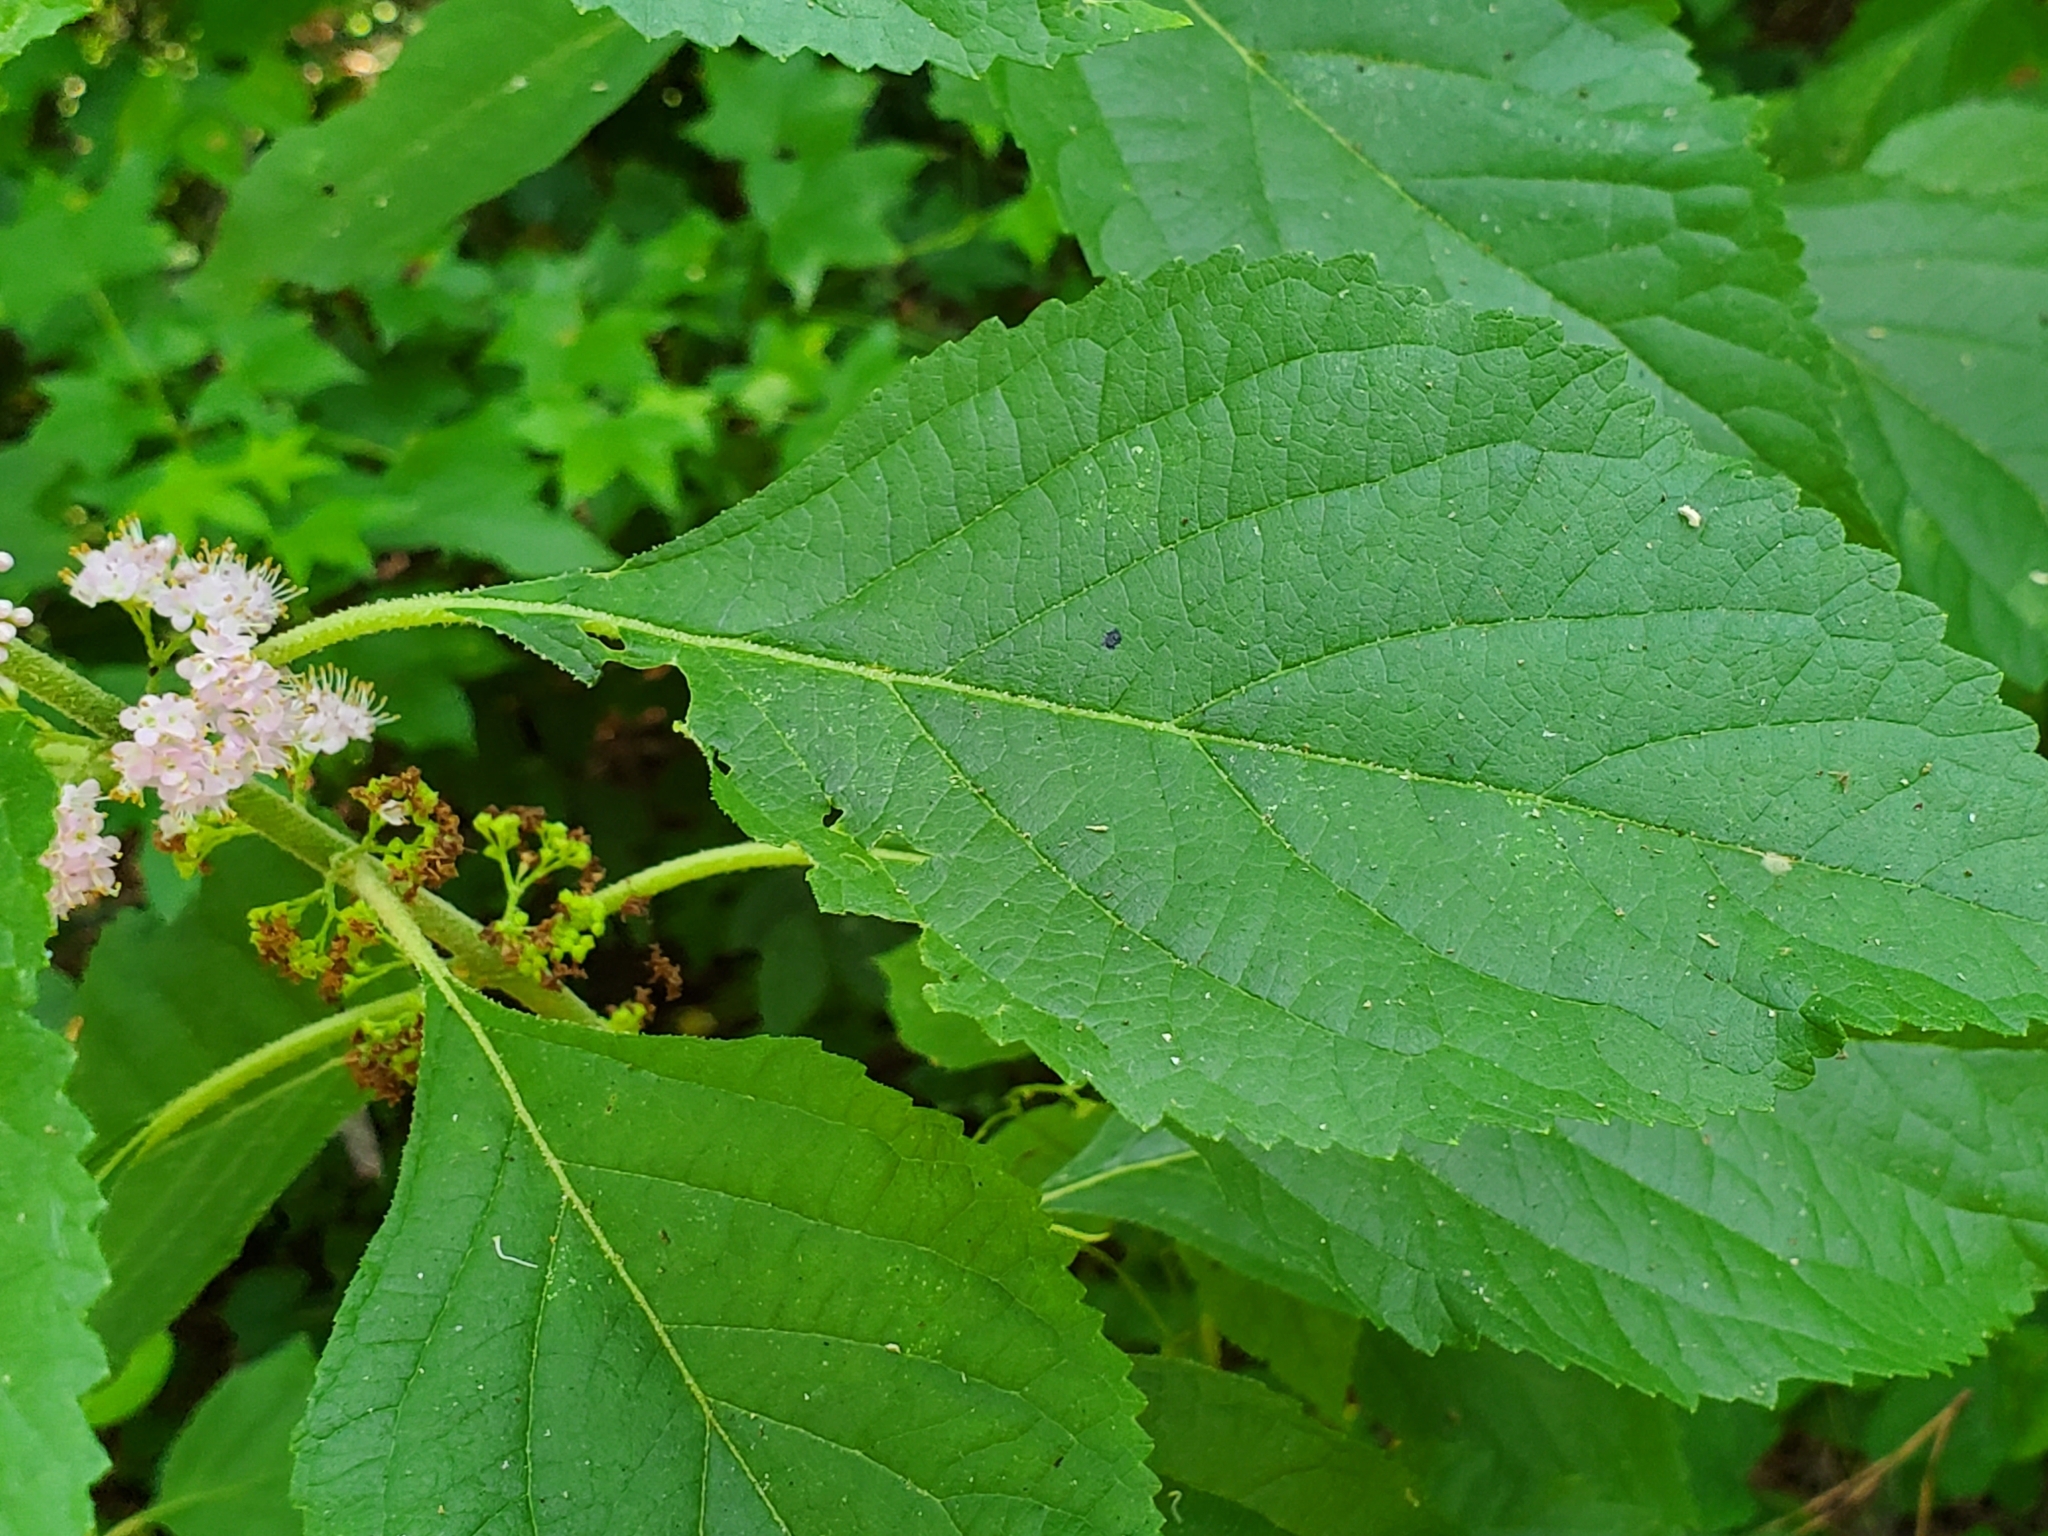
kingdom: Plantae
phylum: Tracheophyta
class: Magnoliopsida
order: Lamiales
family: Lamiaceae
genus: Callicarpa
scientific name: Callicarpa americana
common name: American beautyberry
